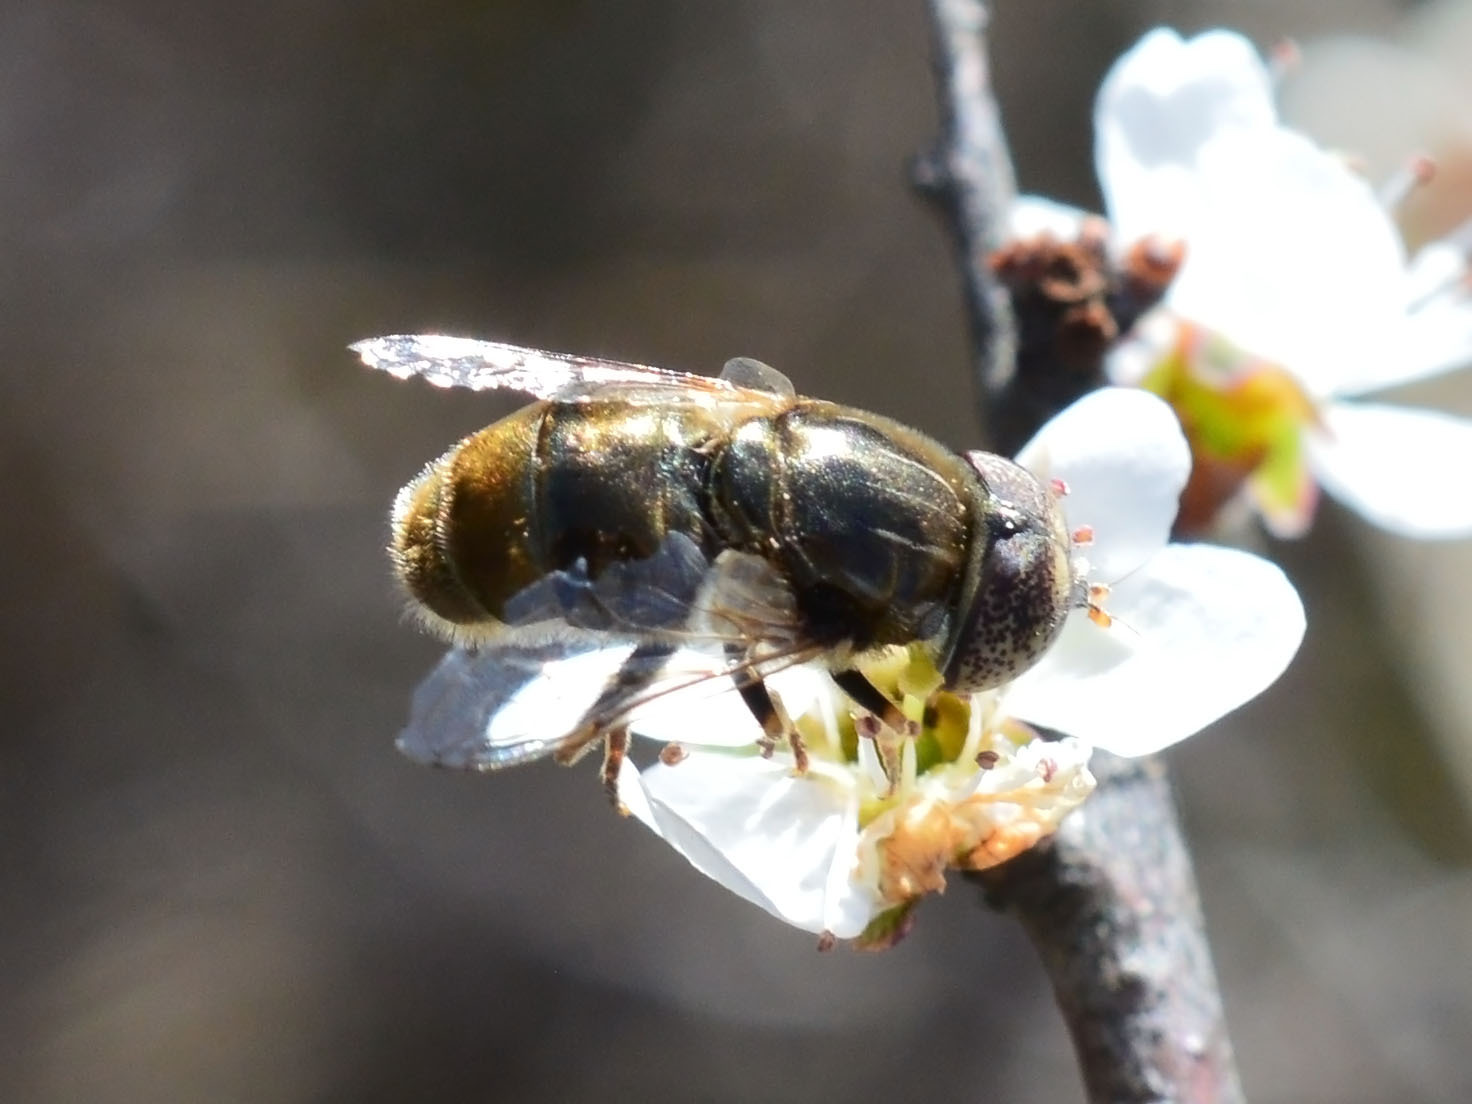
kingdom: Animalia
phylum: Arthropoda
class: Insecta
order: Diptera
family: Syrphidae
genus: Eristalinus
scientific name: Eristalinus aeneus
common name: Syrphid fly
